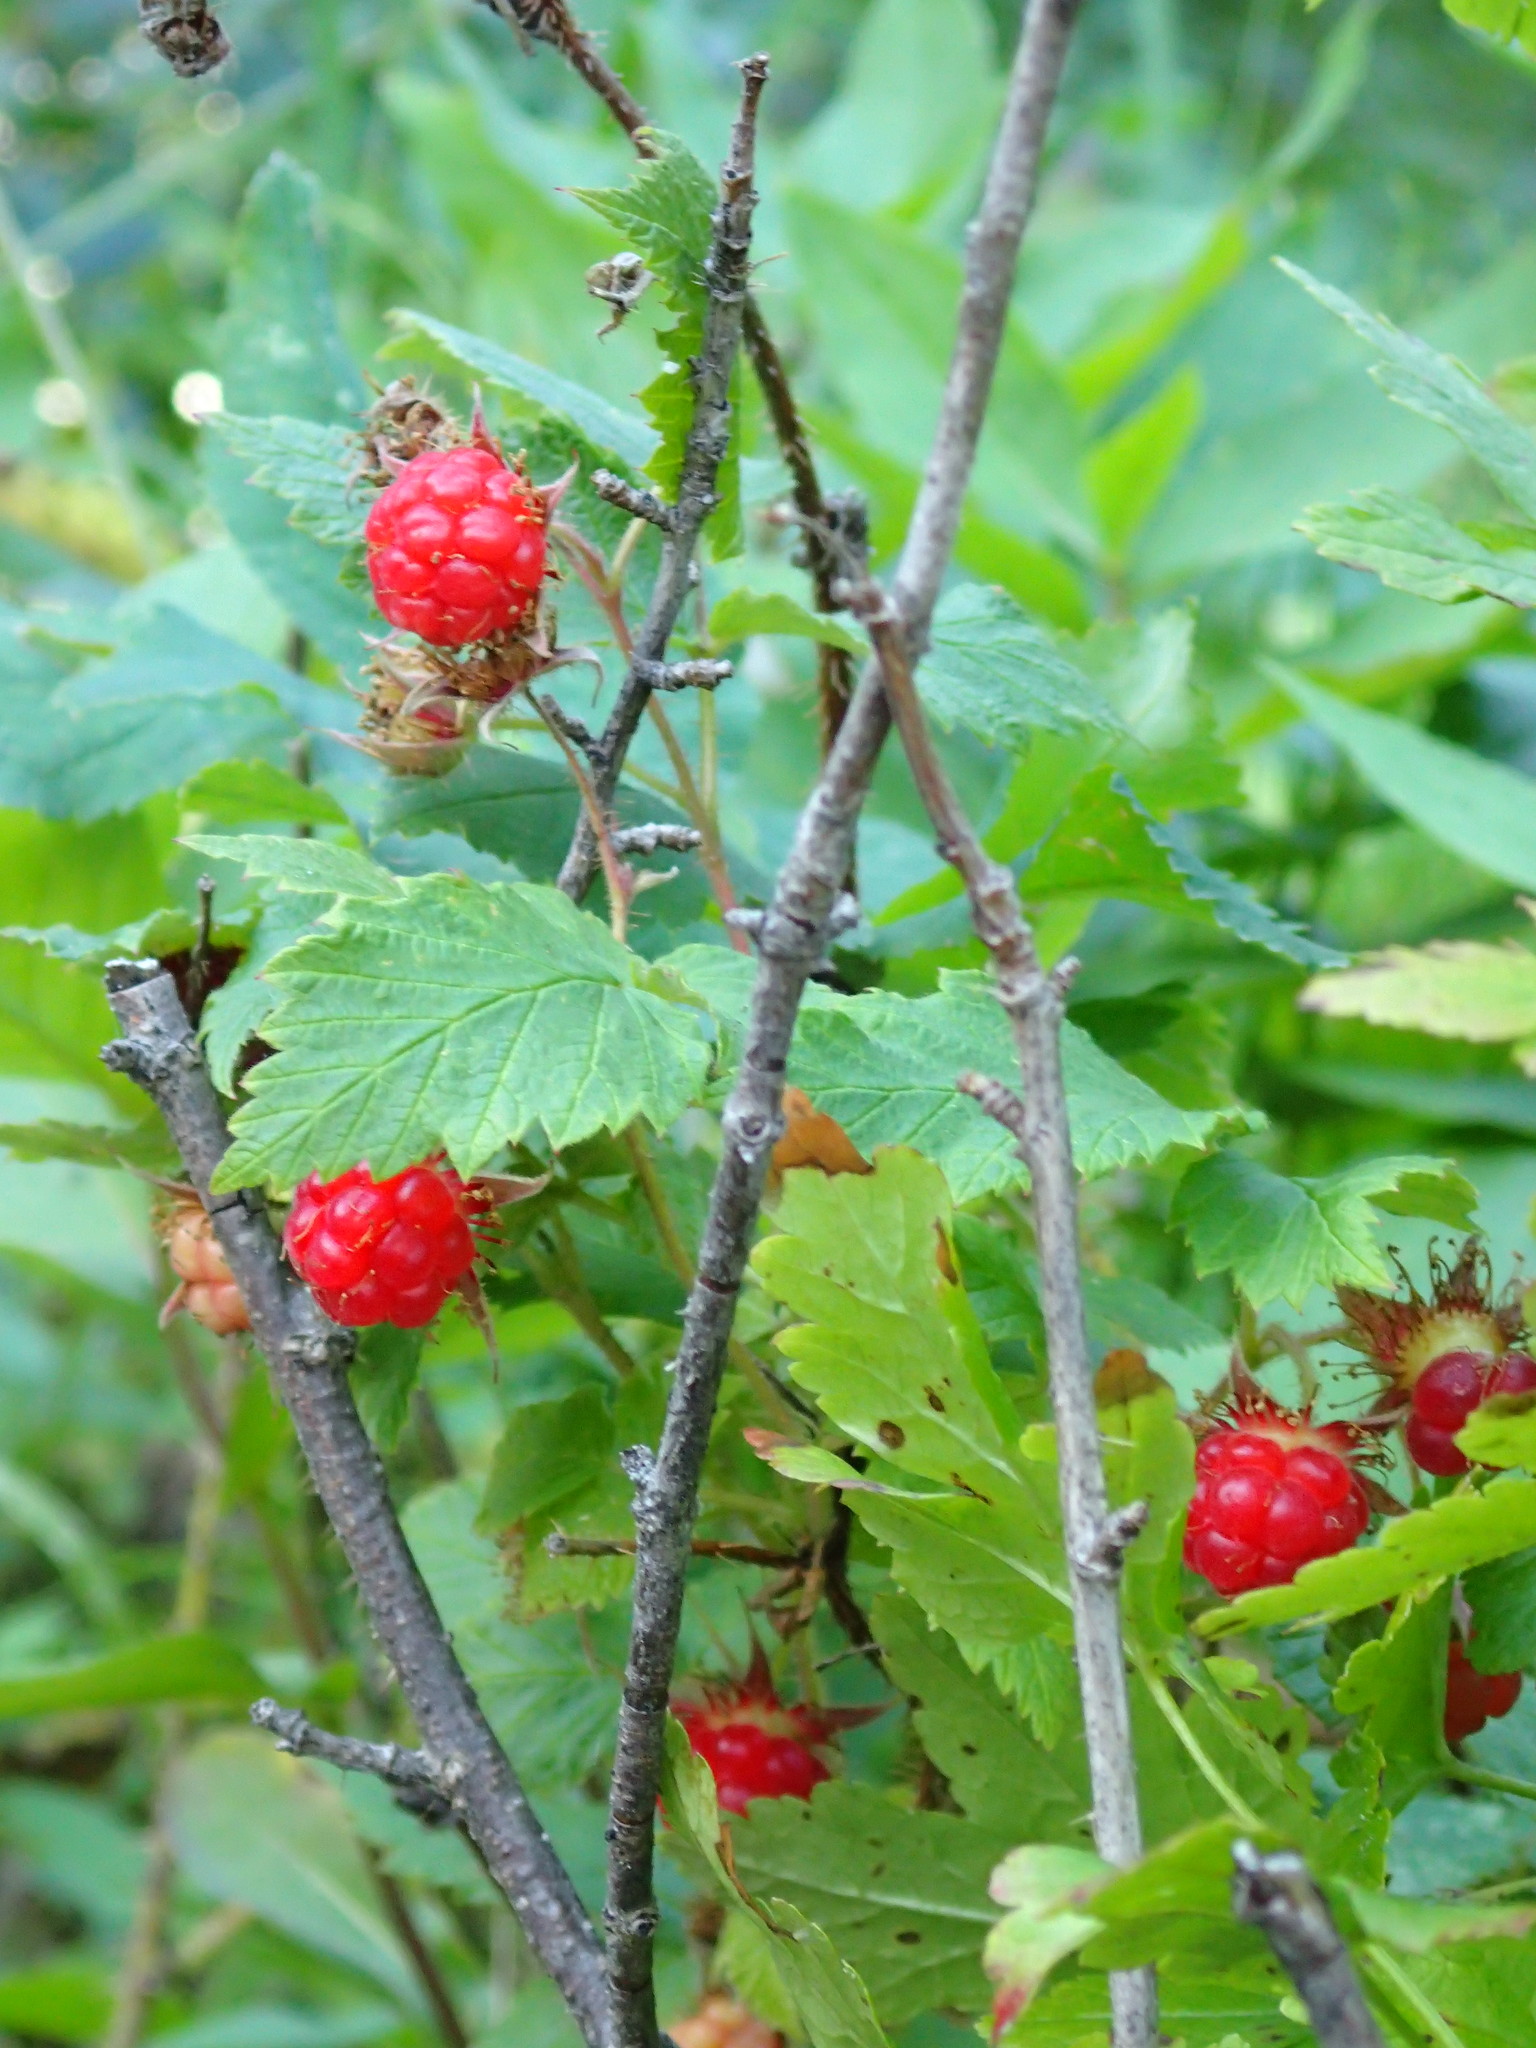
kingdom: Plantae
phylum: Tracheophyta
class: Magnoliopsida
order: Rosales
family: Rosaceae
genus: Rubus
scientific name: Rubus idaeus
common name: Raspberry
